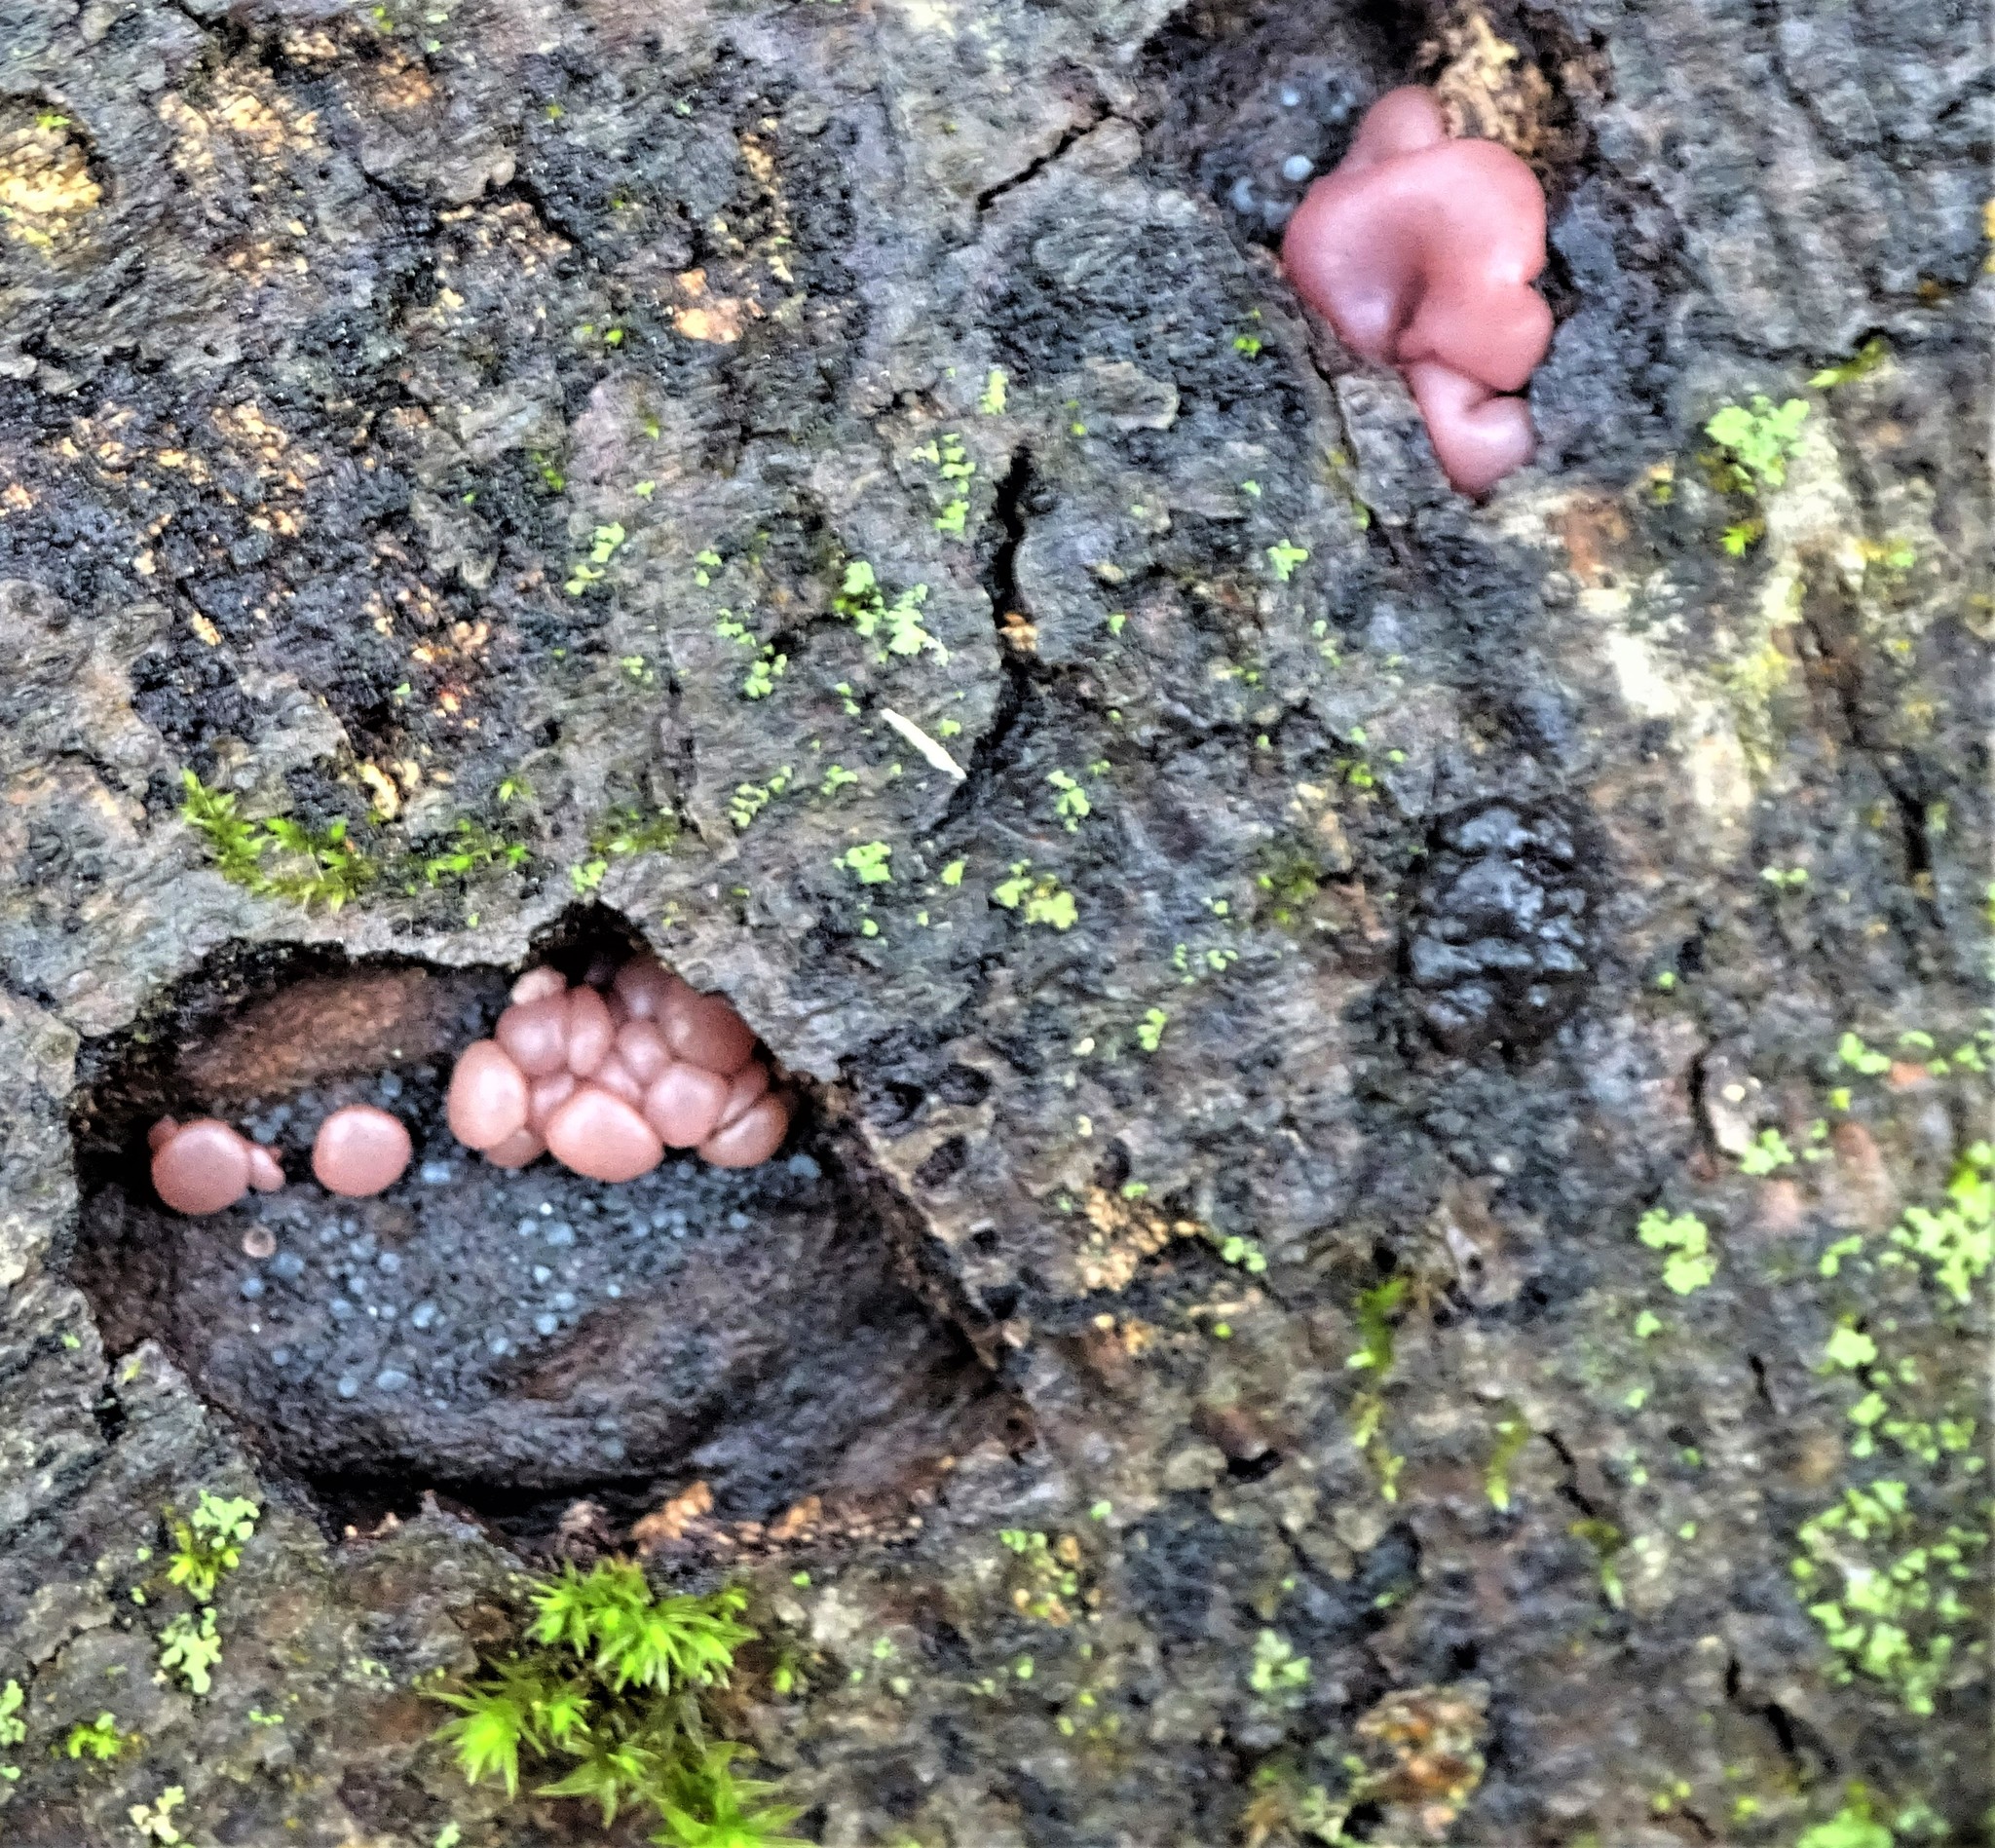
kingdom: Fungi
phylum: Ascomycota
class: Leotiomycetes
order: Helotiales
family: Gelatinodiscaceae
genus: Ascocoryne
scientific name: Ascocoryne sarcoides
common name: Purple jellydisc
